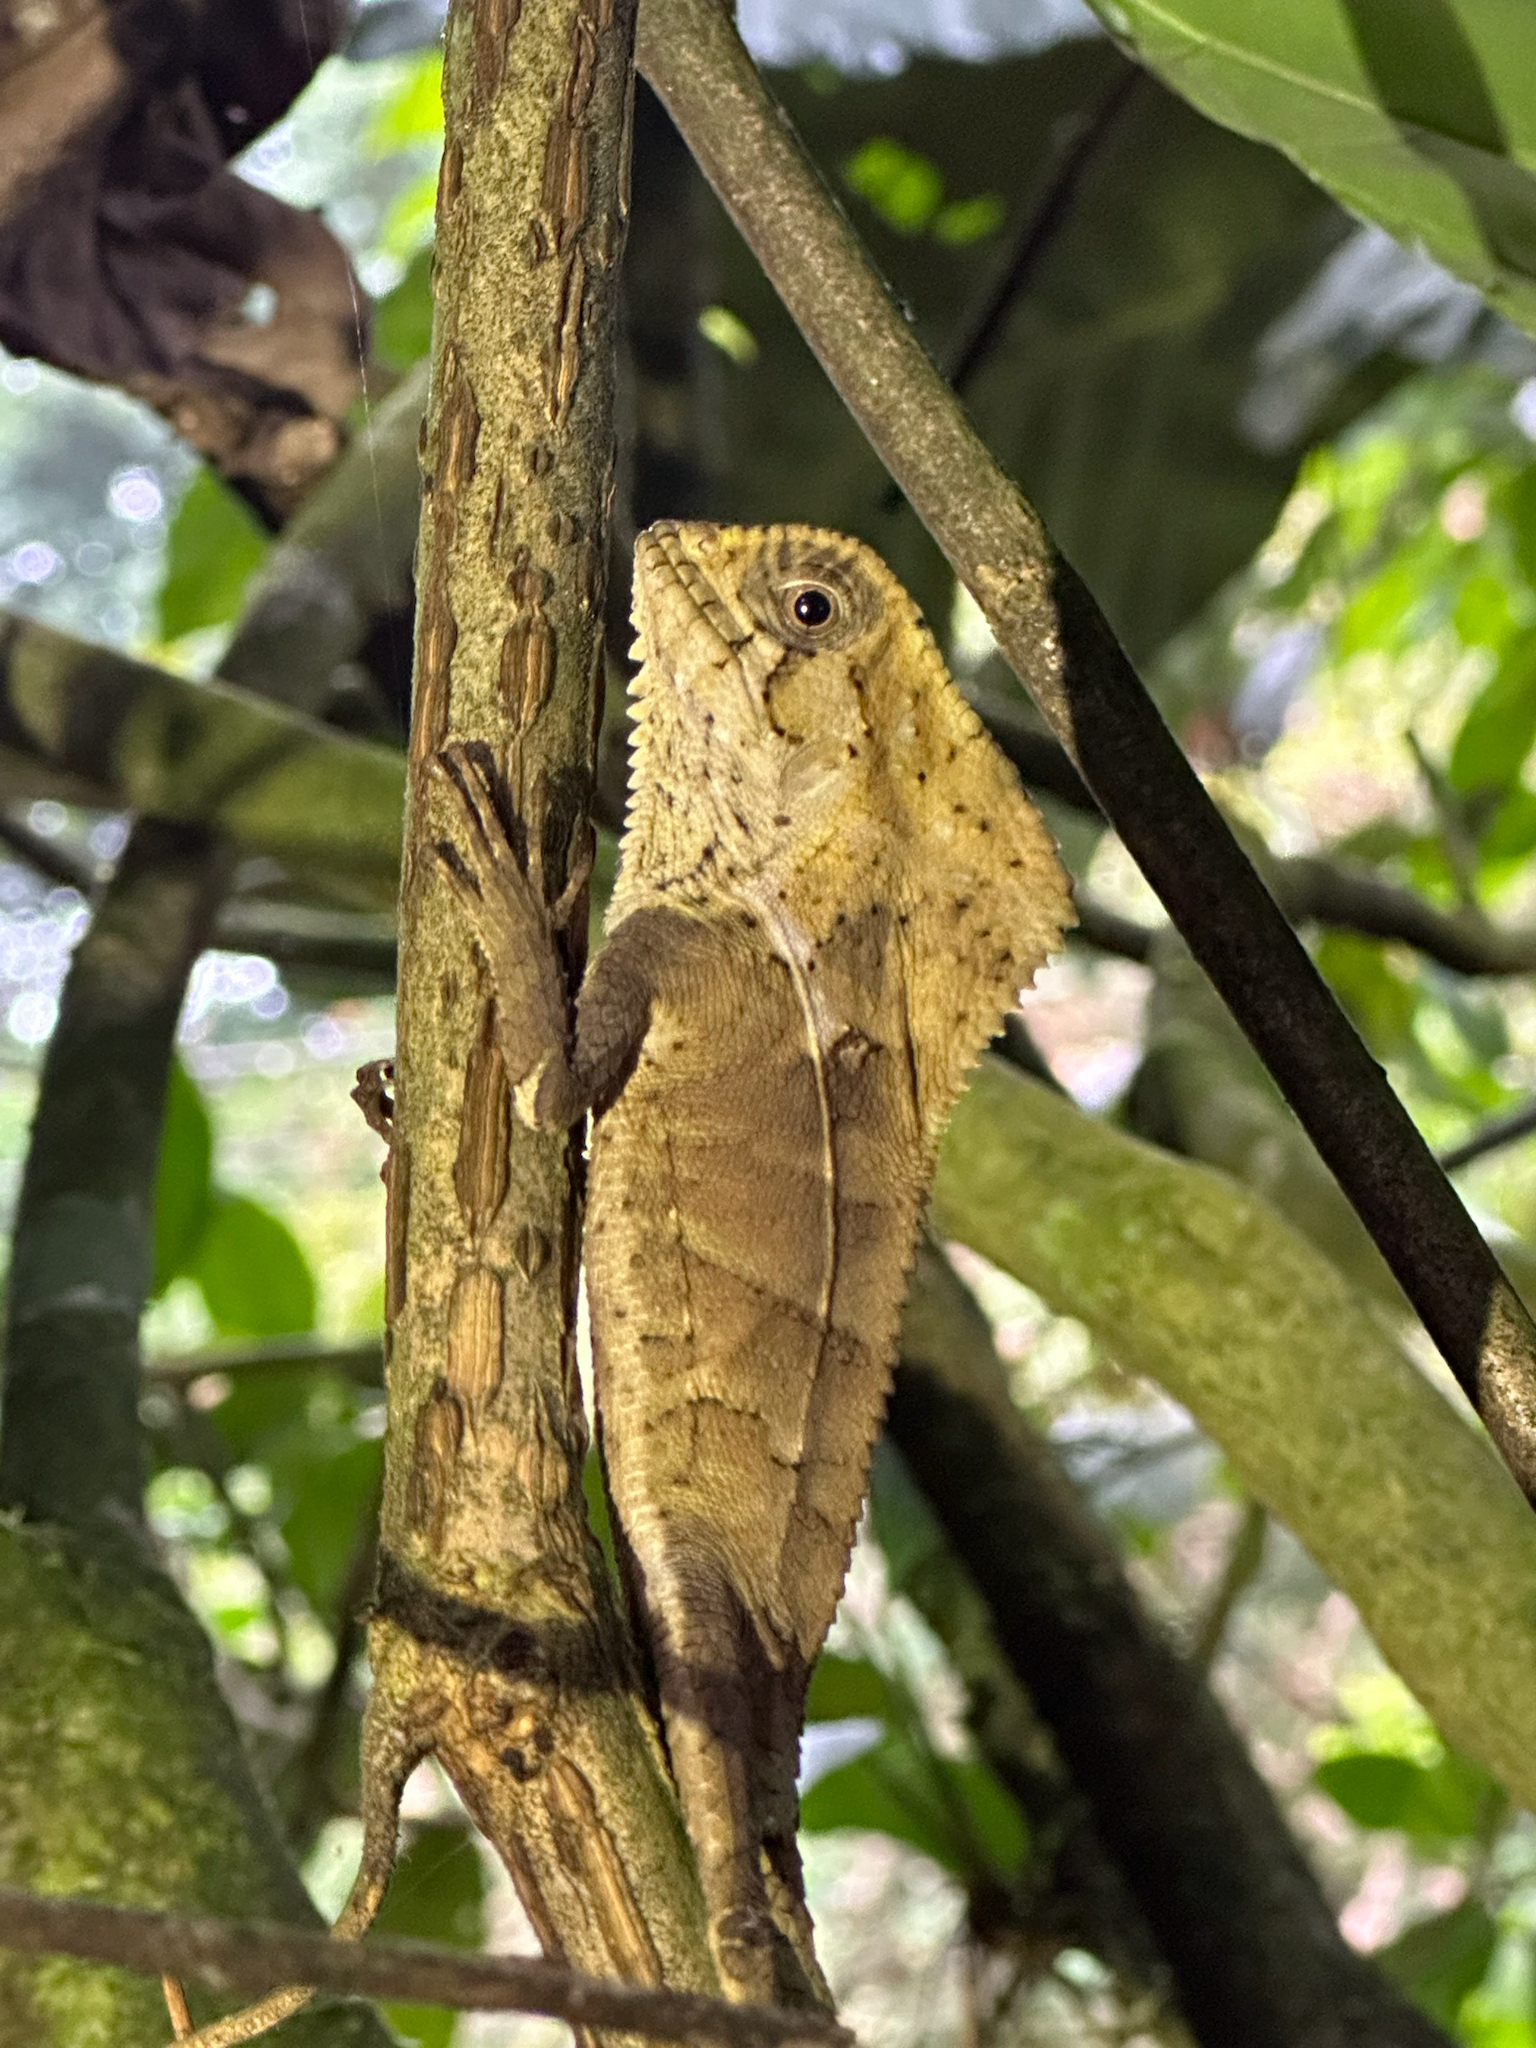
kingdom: Animalia
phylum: Chordata
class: Squamata
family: Corytophanidae
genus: Corytophanes
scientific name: Corytophanes cristatus
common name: Smooth helmeted iguana
